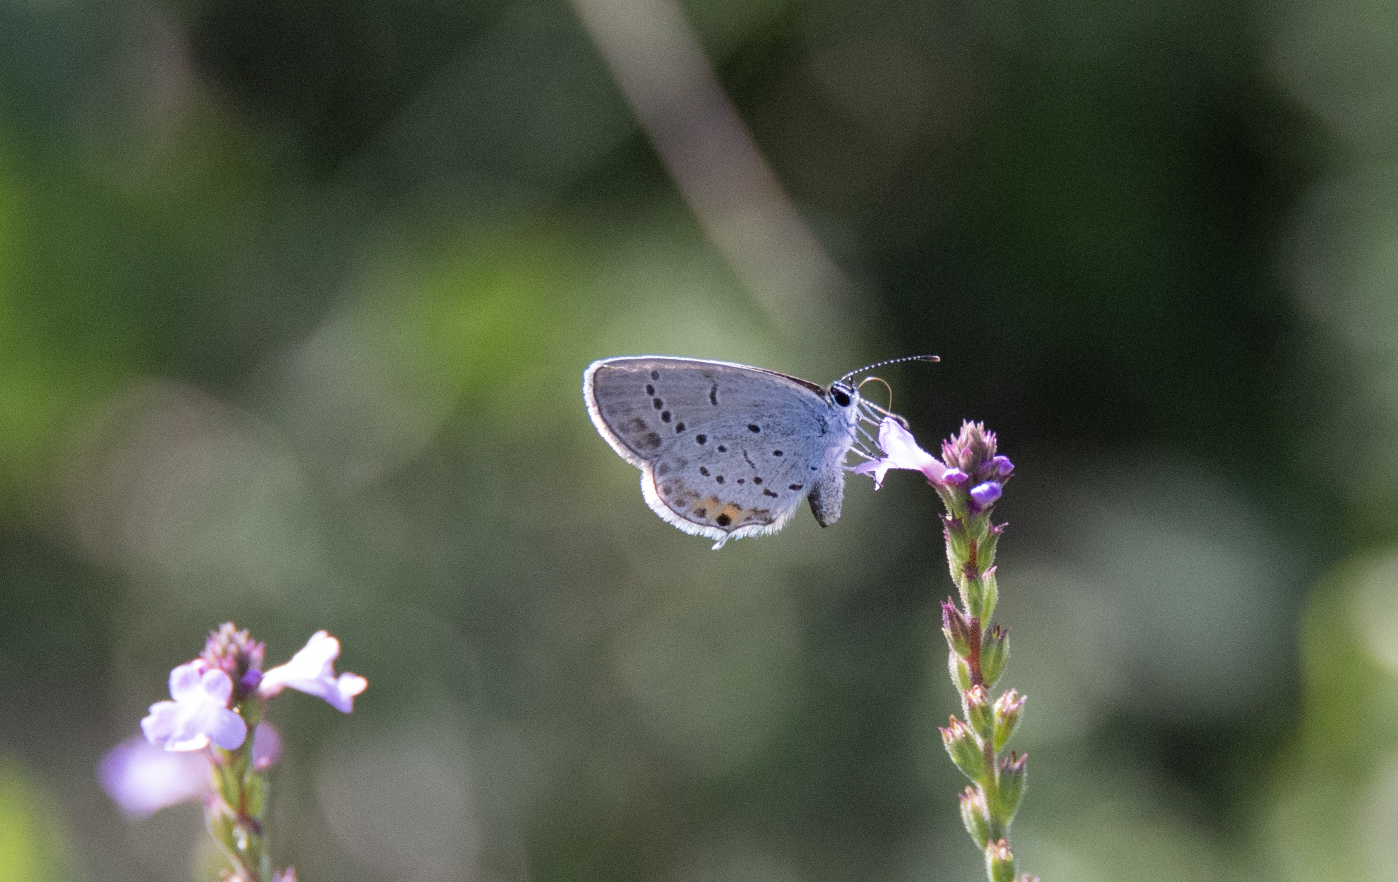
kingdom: Animalia
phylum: Arthropoda
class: Insecta
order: Lepidoptera
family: Lycaenidae
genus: Elkalyce
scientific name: Elkalyce argiades
